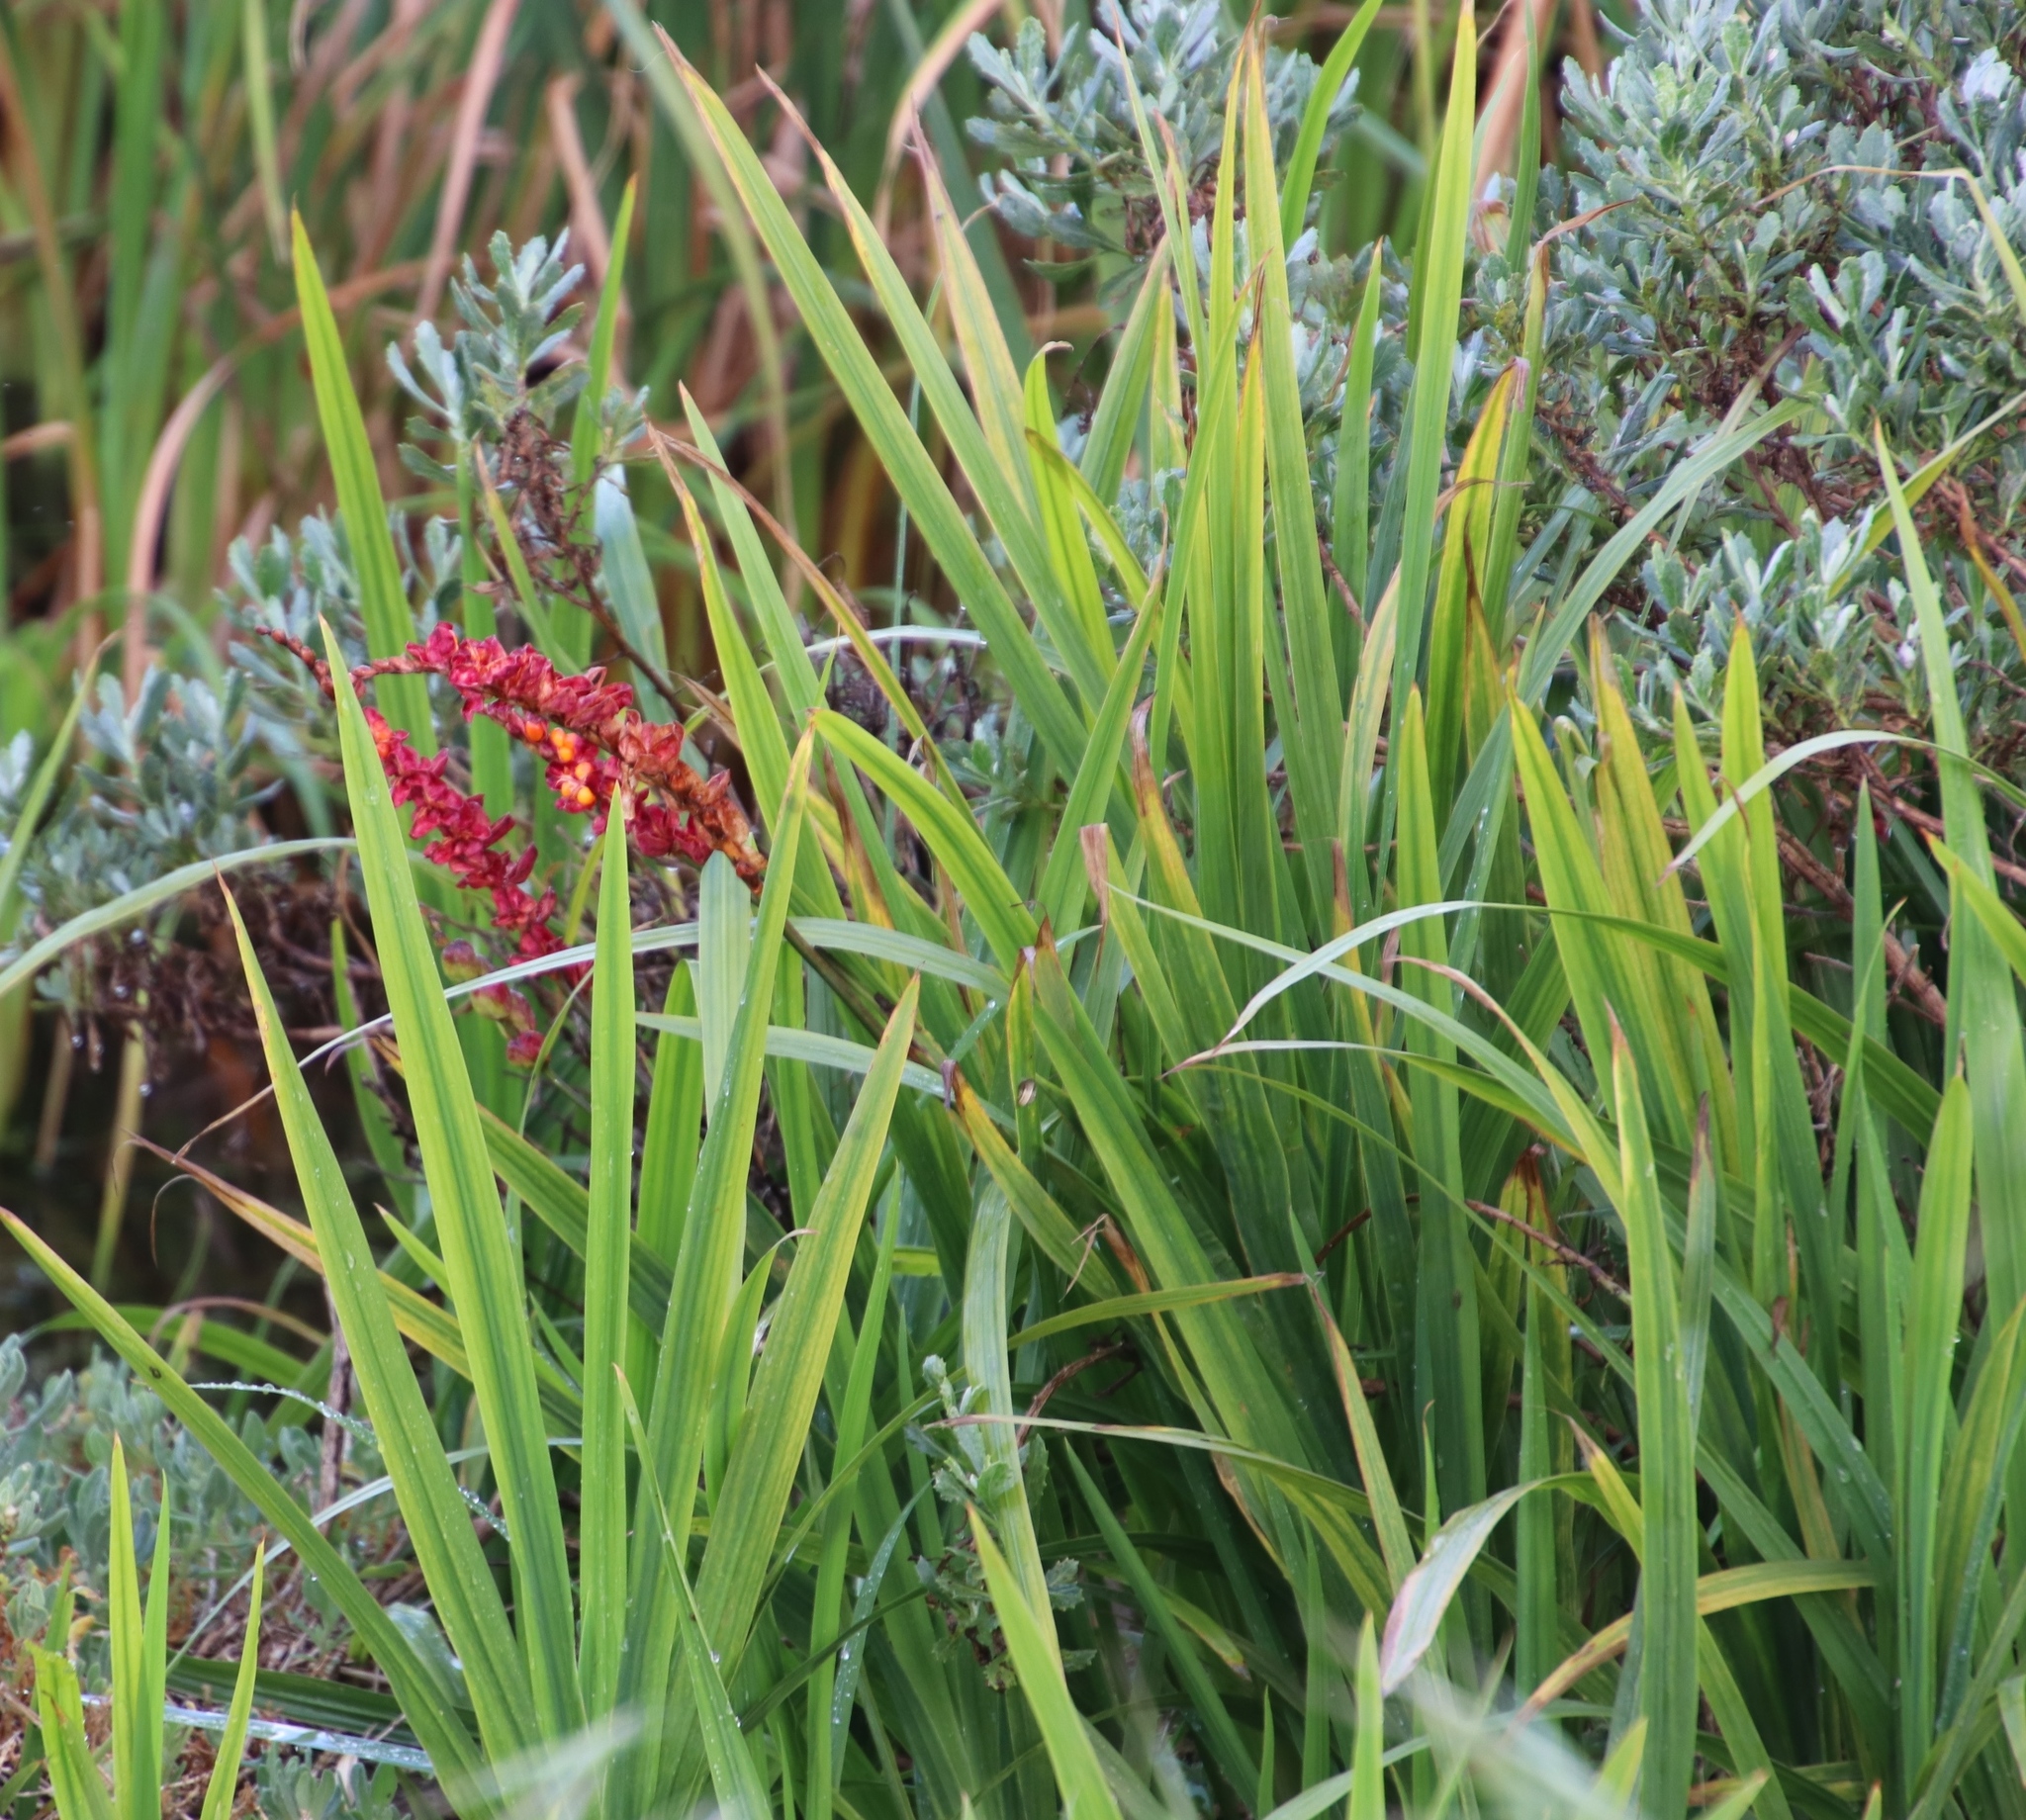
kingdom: Plantae
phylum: Tracheophyta
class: Liliopsida
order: Asparagales
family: Iridaceae
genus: Chasmanthe
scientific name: Chasmanthe floribunda
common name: African cornflag
